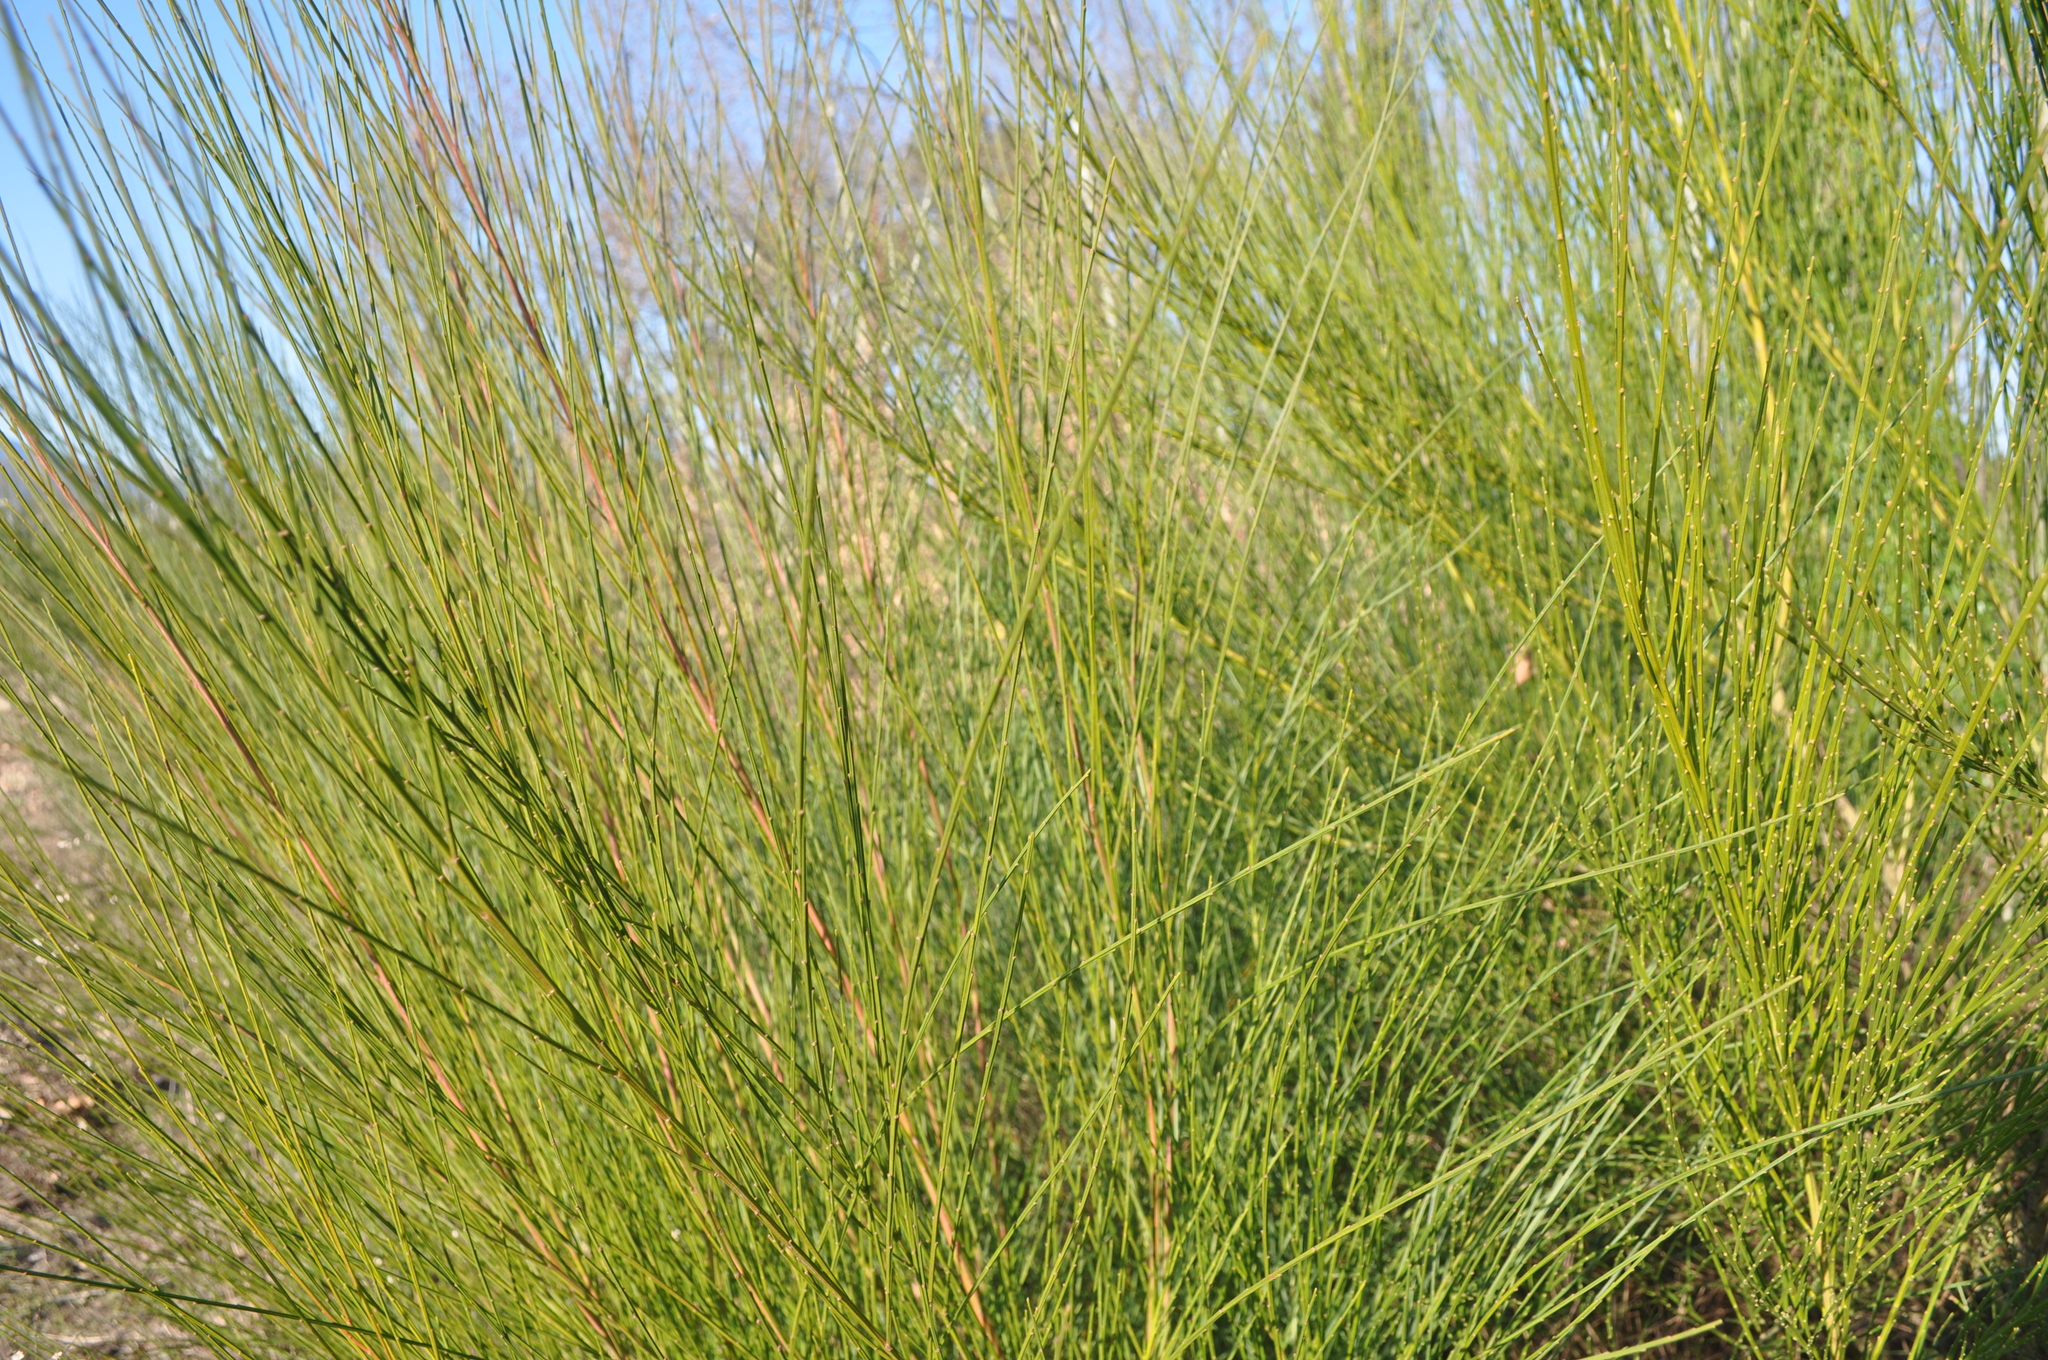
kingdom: Plantae
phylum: Tracheophyta
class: Magnoliopsida
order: Fabales
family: Fabaceae
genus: Cytisus
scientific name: Cytisus scoparius
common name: Scotch broom
